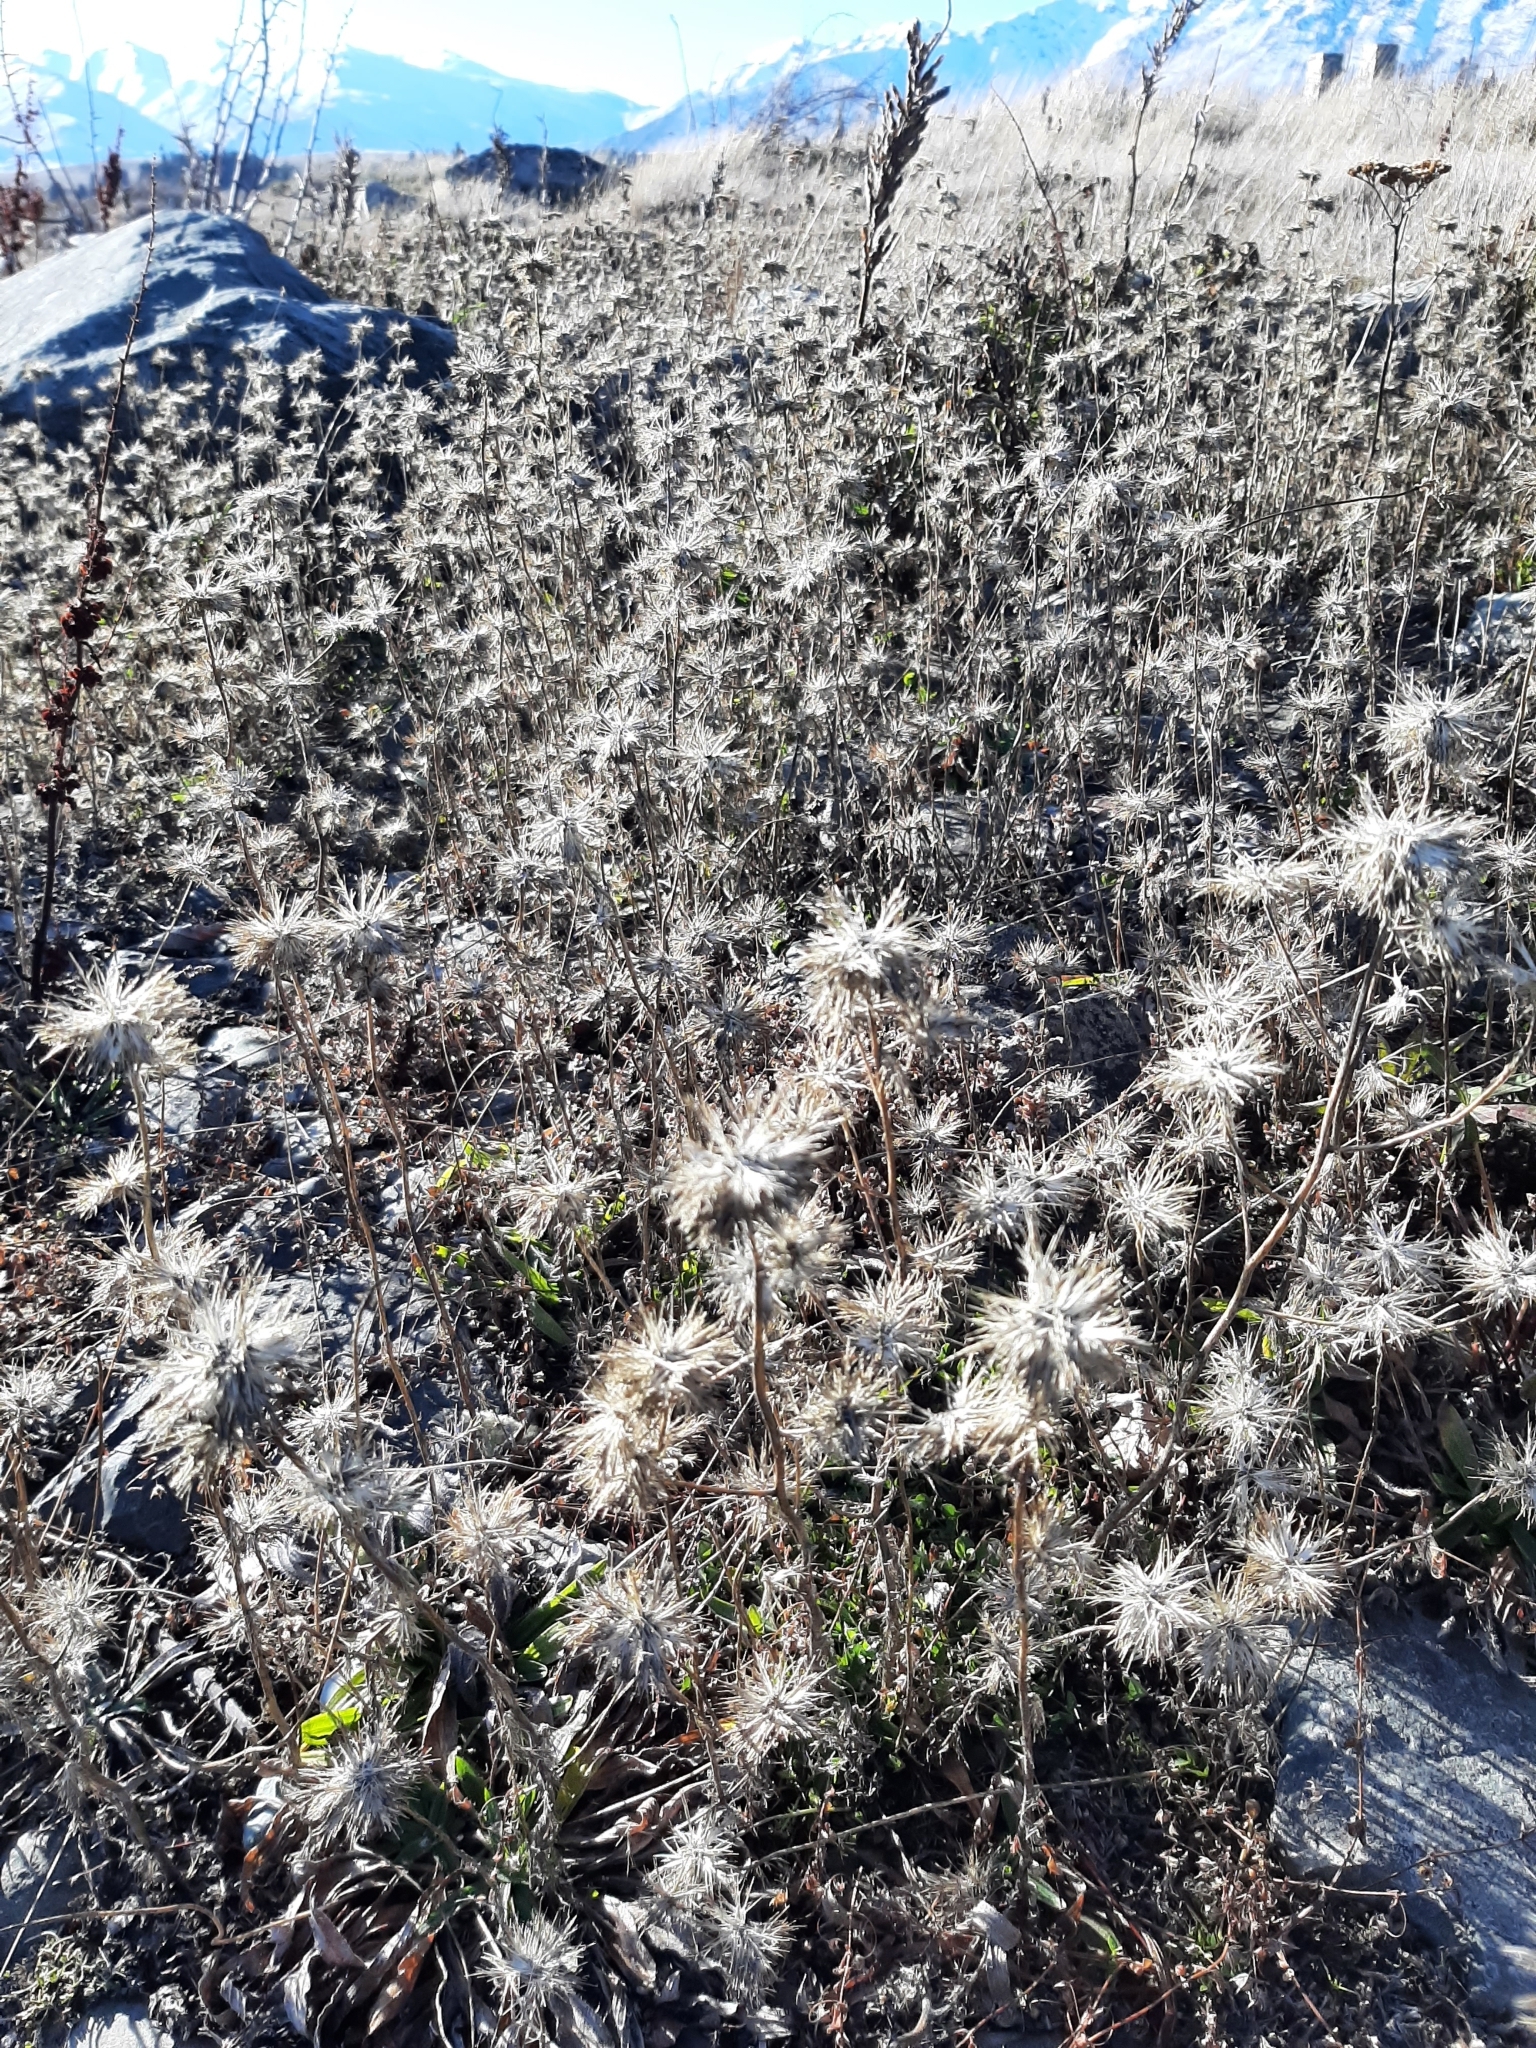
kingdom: Plantae
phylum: Tracheophyta
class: Magnoliopsida
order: Ericales
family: Polemoniaceae
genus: Navarretia
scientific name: Navarretia squarrosa
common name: Skunkweed
